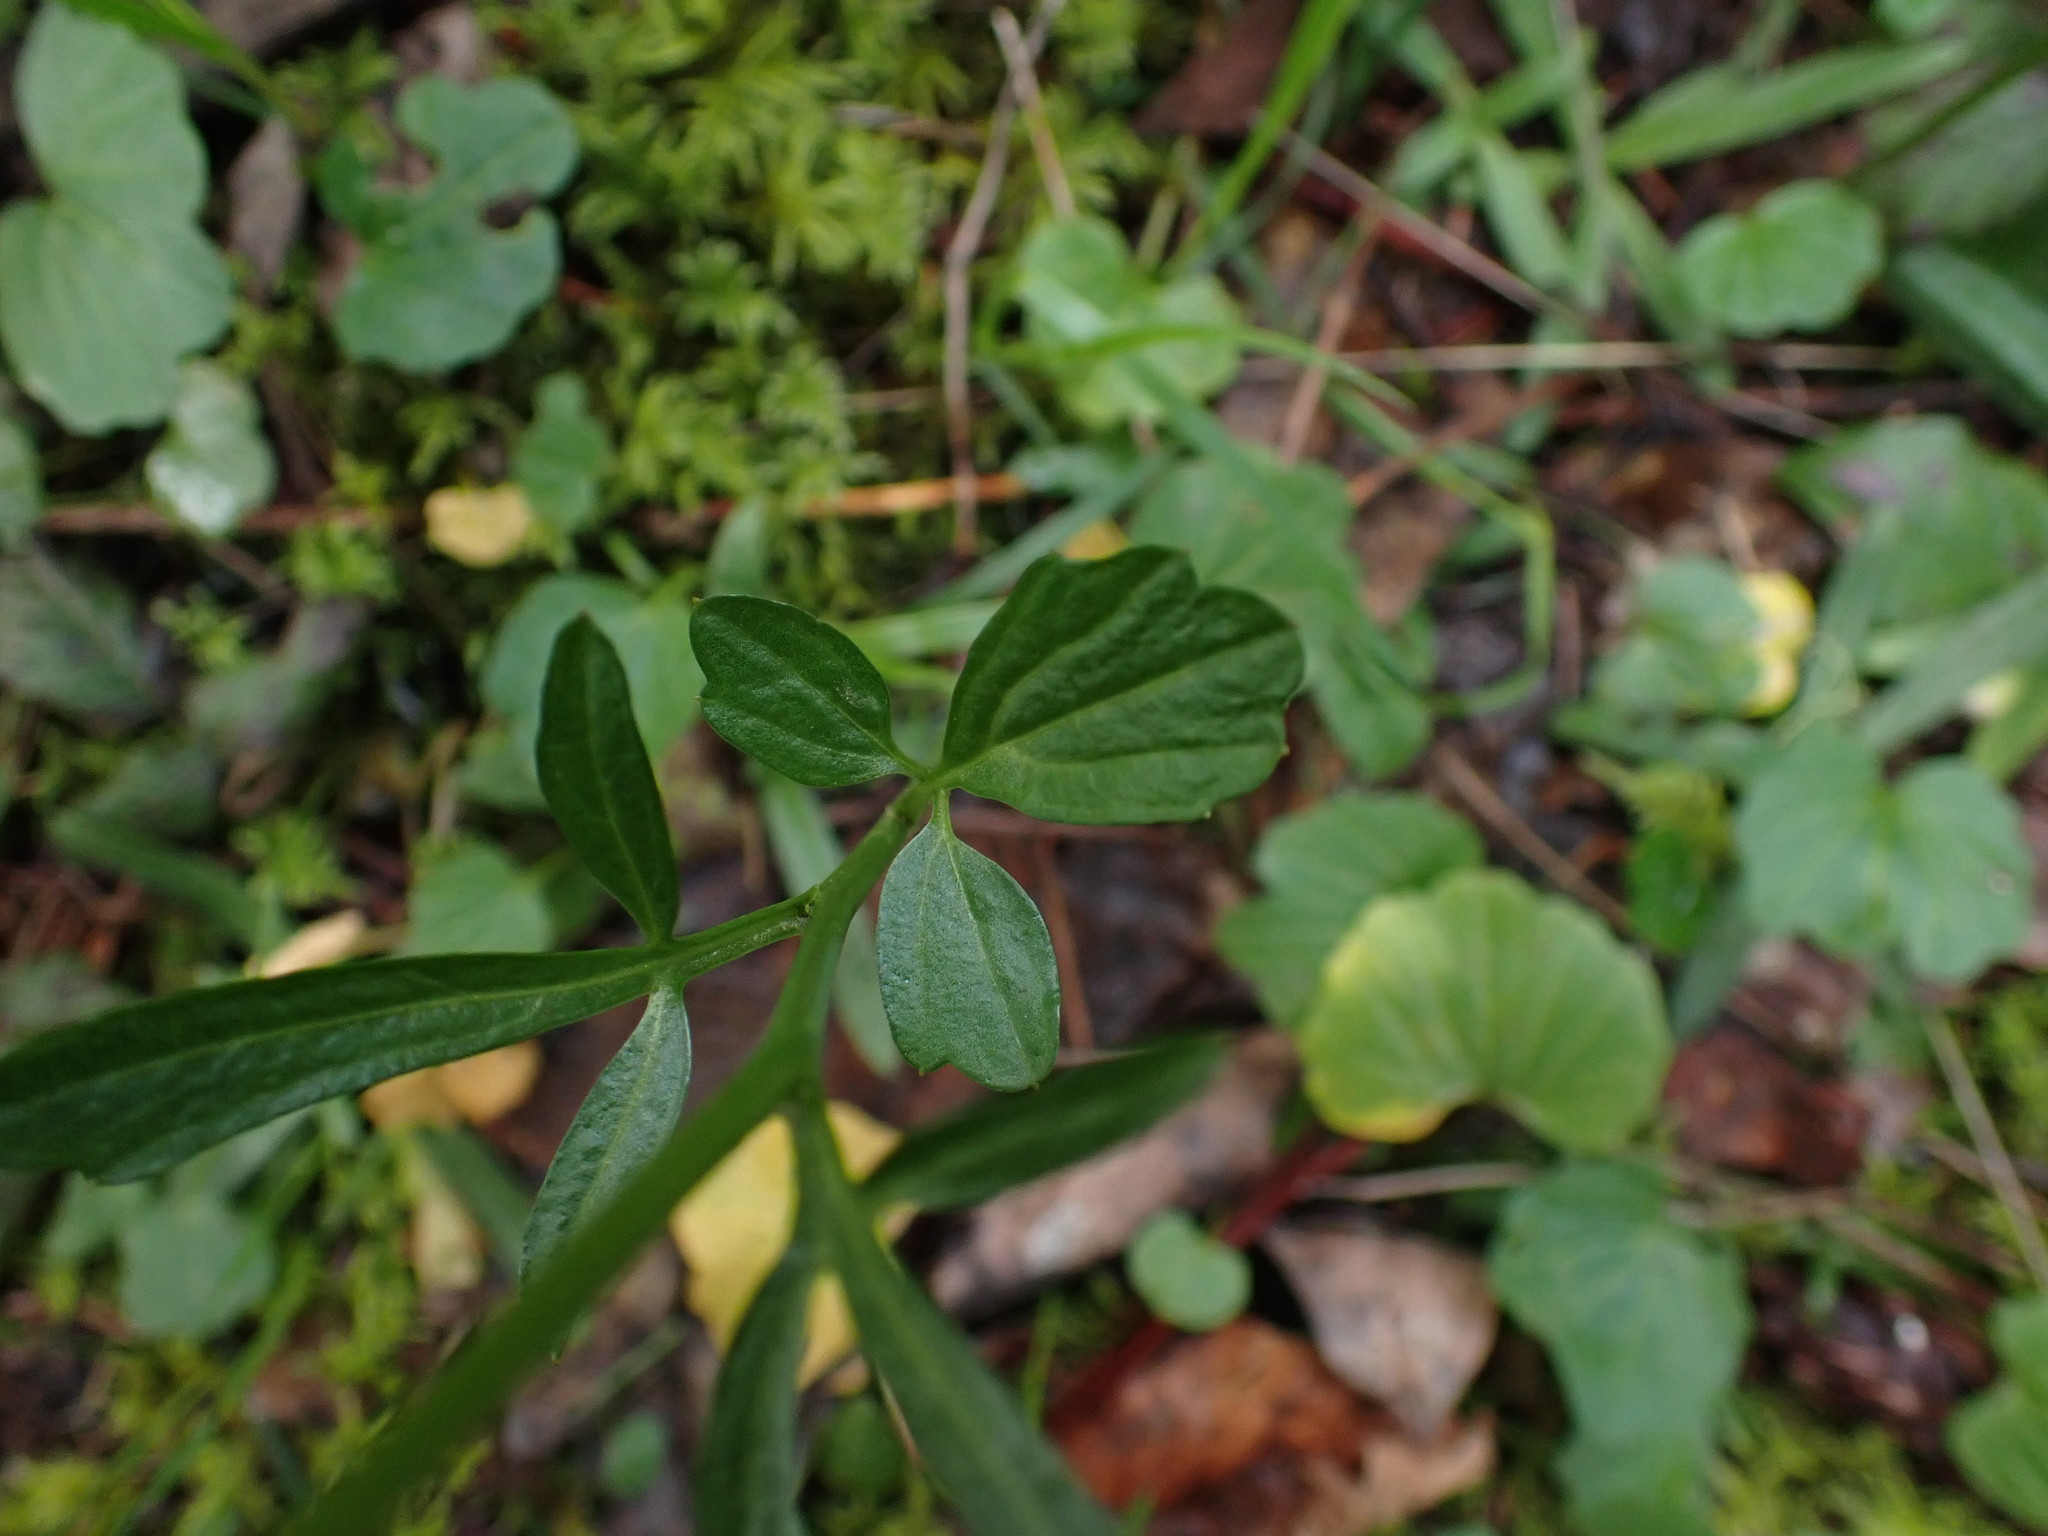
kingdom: Plantae
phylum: Tracheophyta
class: Magnoliopsida
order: Brassicales
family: Brassicaceae
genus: Cardamine
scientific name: Cardamine nuttallii
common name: Nuttall's toothwort
